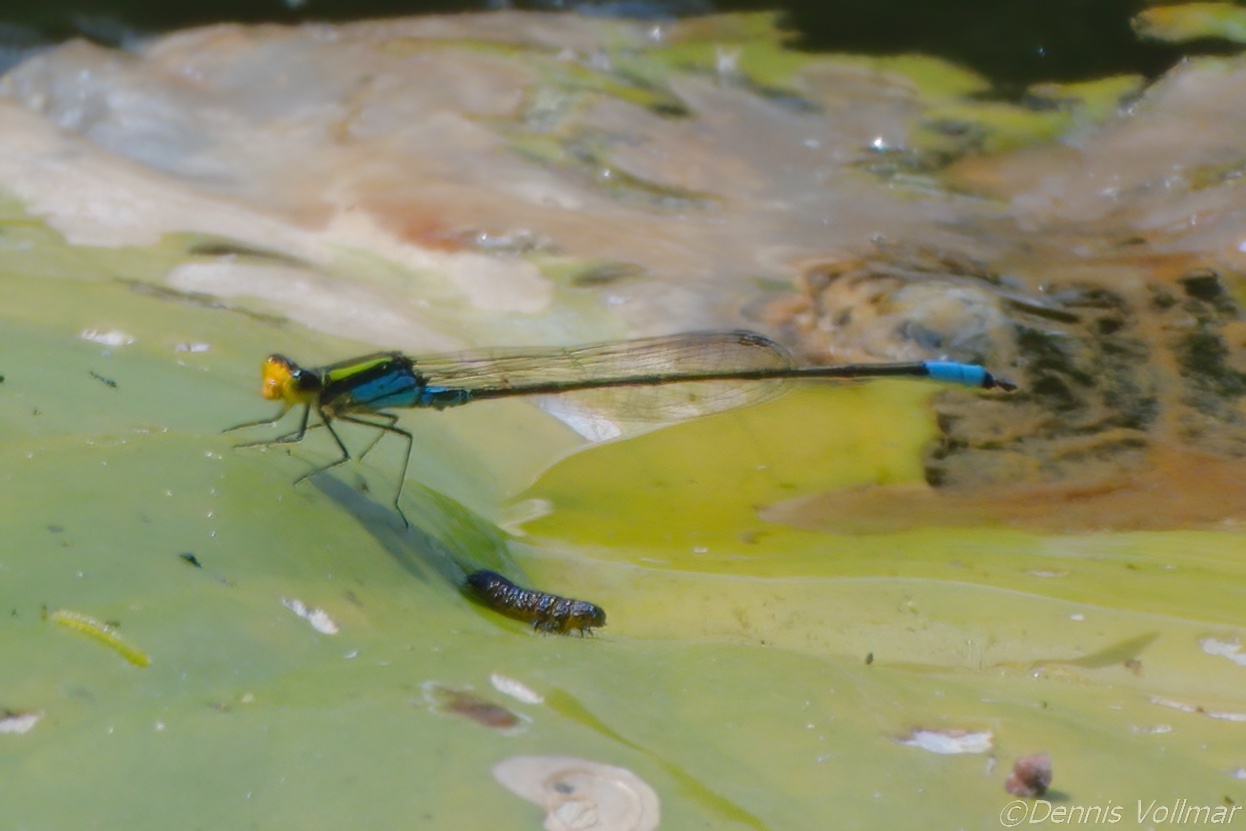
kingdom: Animalia
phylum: Arthropoda
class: Insecta
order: Odonata
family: Coenagrionidae
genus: Neoerythromma
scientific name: Neoerythromma cultellatum
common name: Caribbean yellowface
